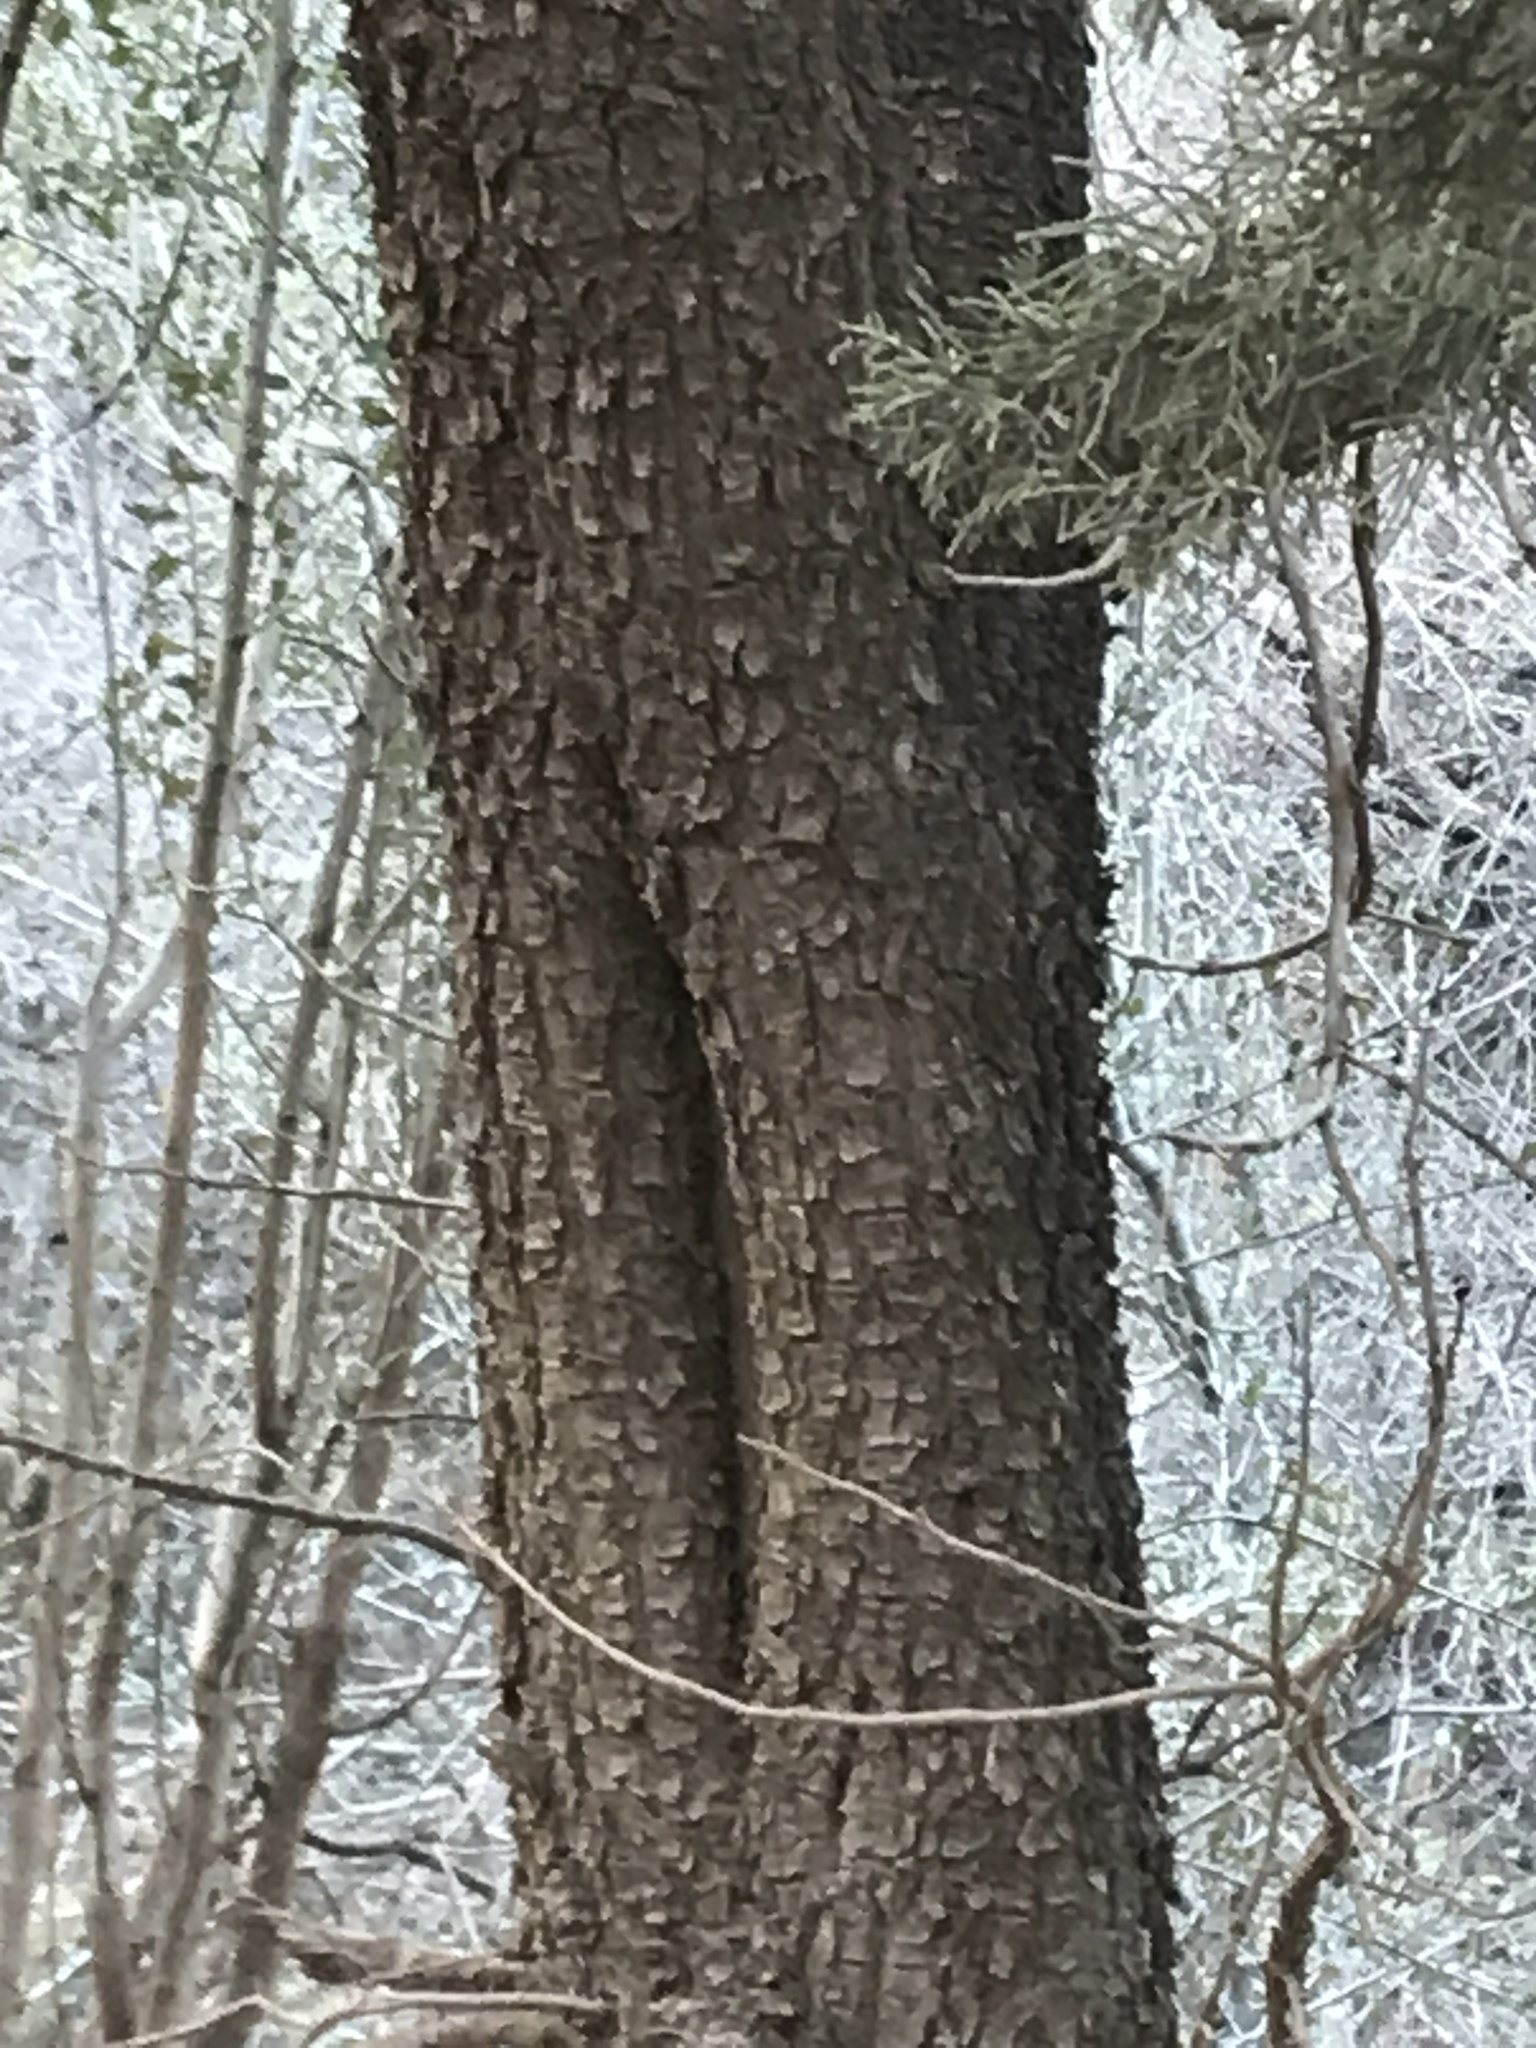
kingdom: Plantae
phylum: Tracheophyta
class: Pinopsida
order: Pinales
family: Cupressaceae
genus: Juniperus
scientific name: Juniperus deppeana
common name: Alligator juniper
